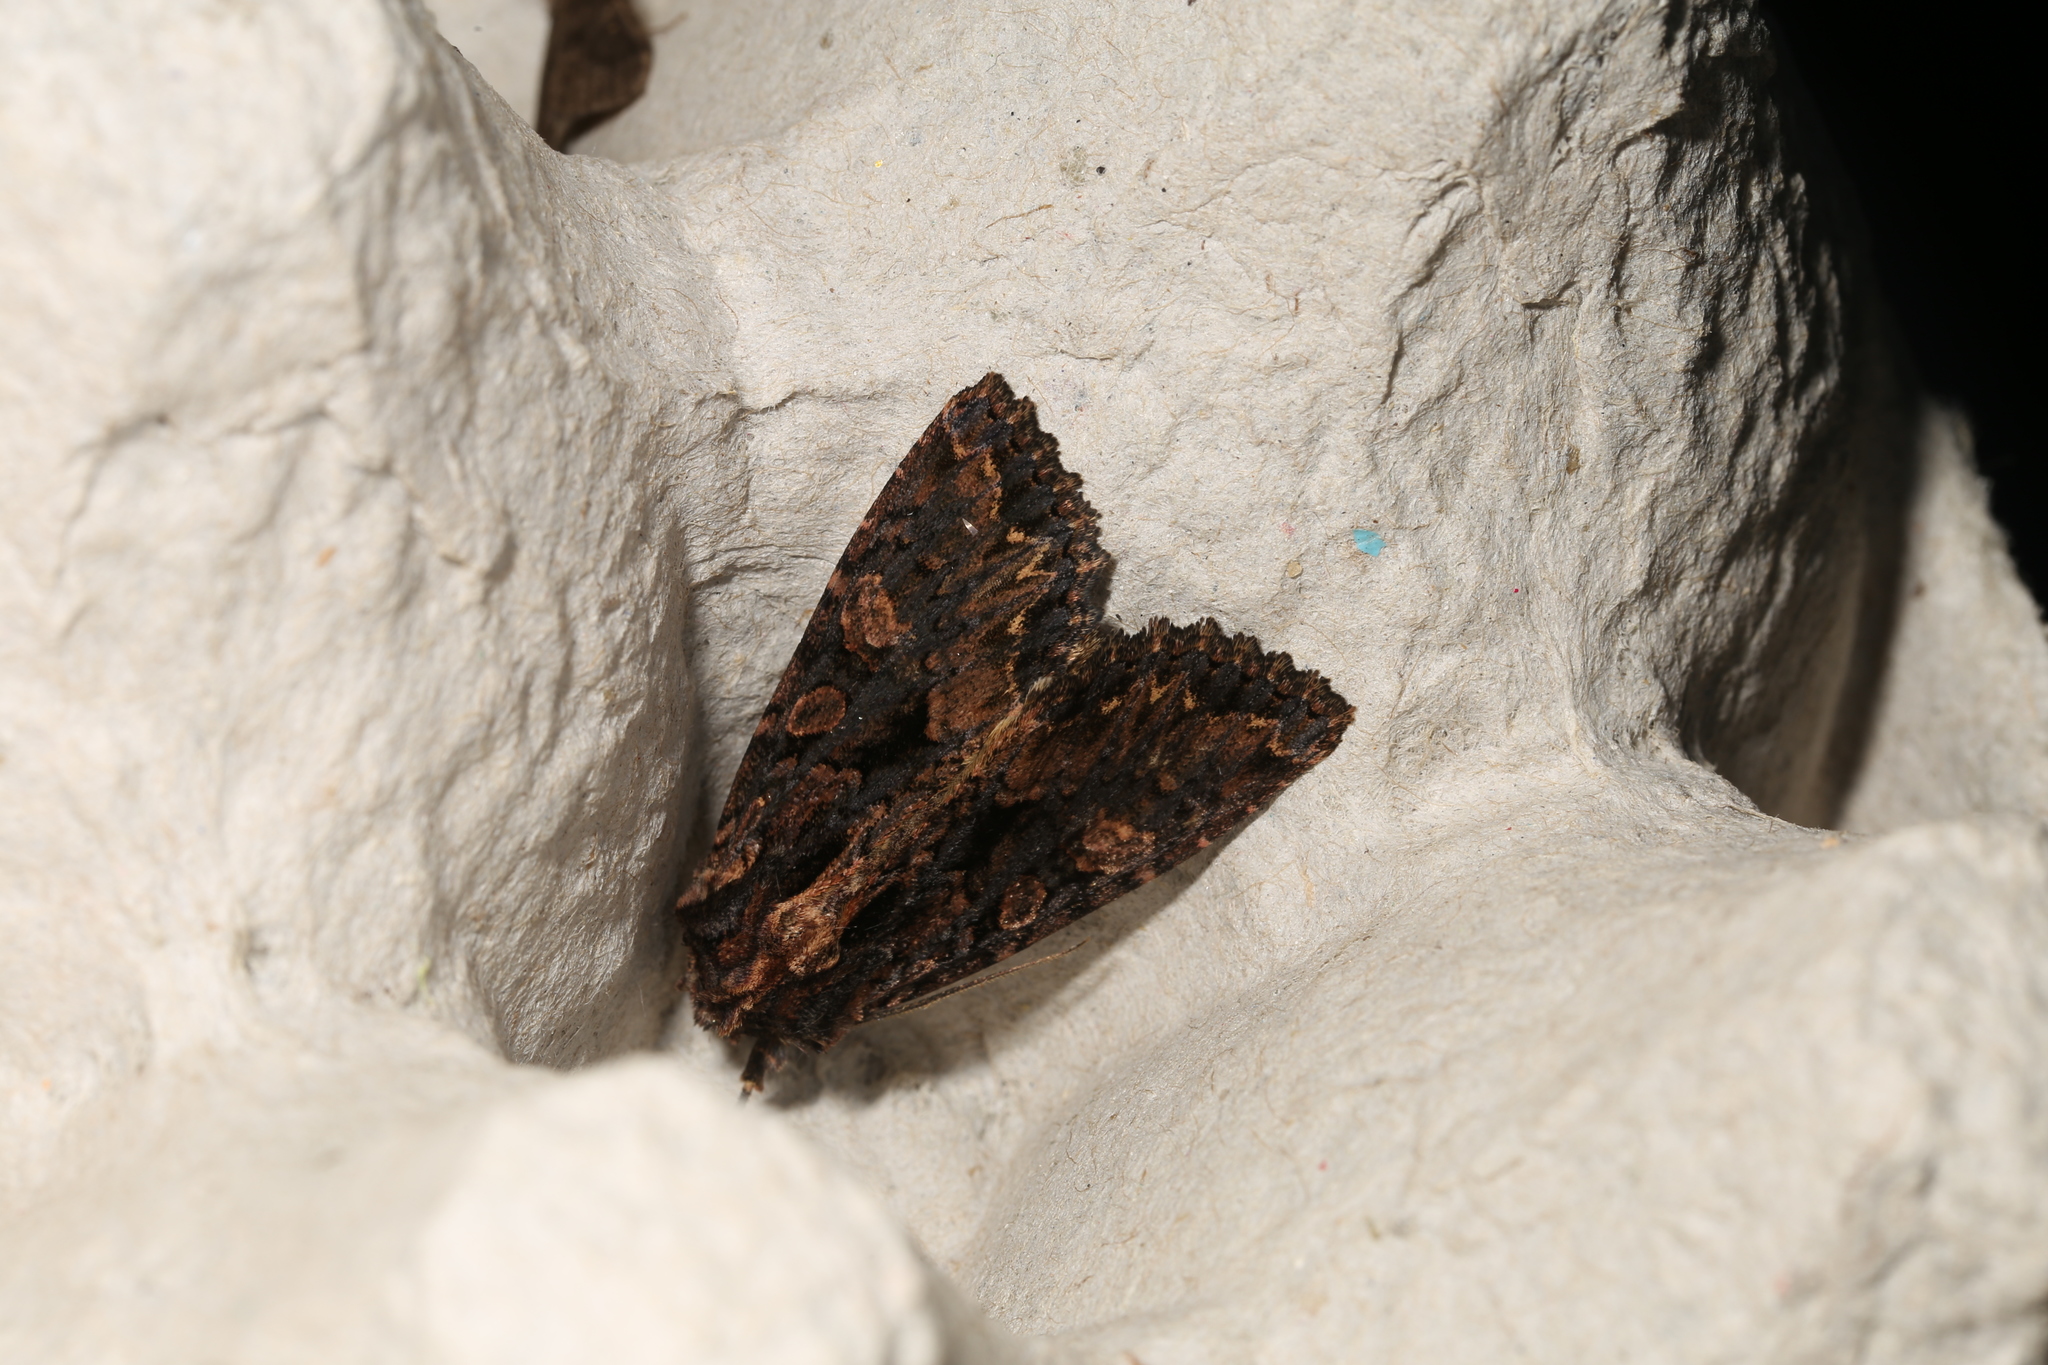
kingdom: Animalia
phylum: Arthropoda
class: Insecta
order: Lepidoptera
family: Noctuidae
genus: Mniotype
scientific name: Mniotype satura
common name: Beautiful arches
